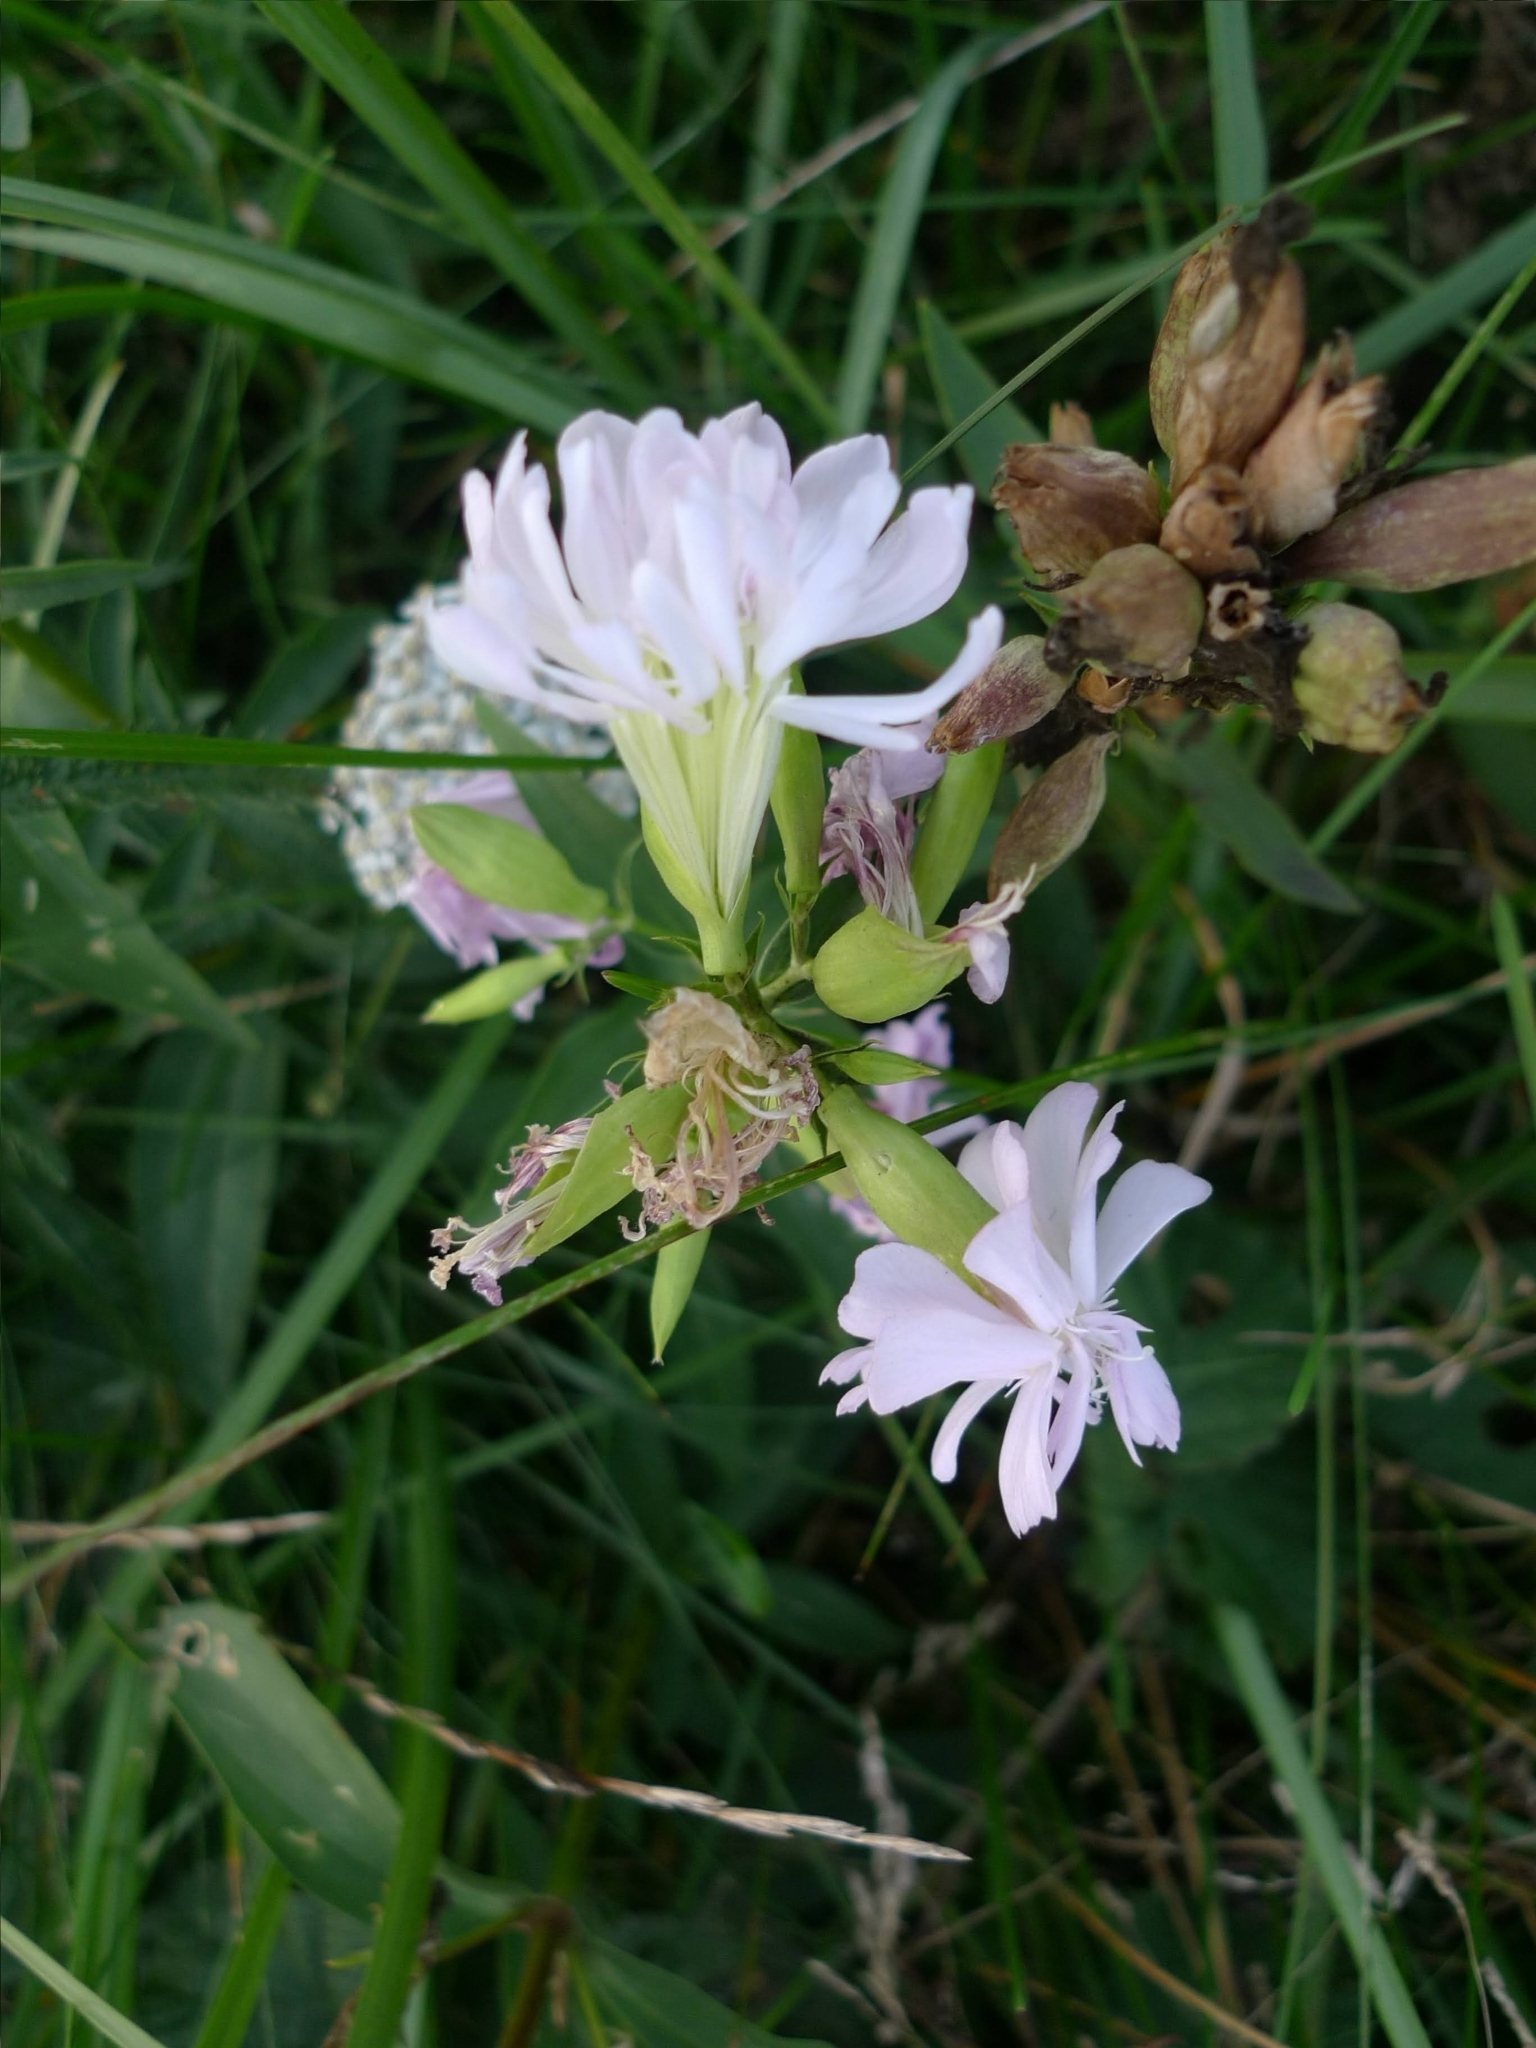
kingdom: Plantae
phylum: Tracheophyta
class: Magnoliopsida
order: Caryophyllales
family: Caryophyllaceae
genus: Saponaria
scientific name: Saponaria officinalis
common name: Soapwort
